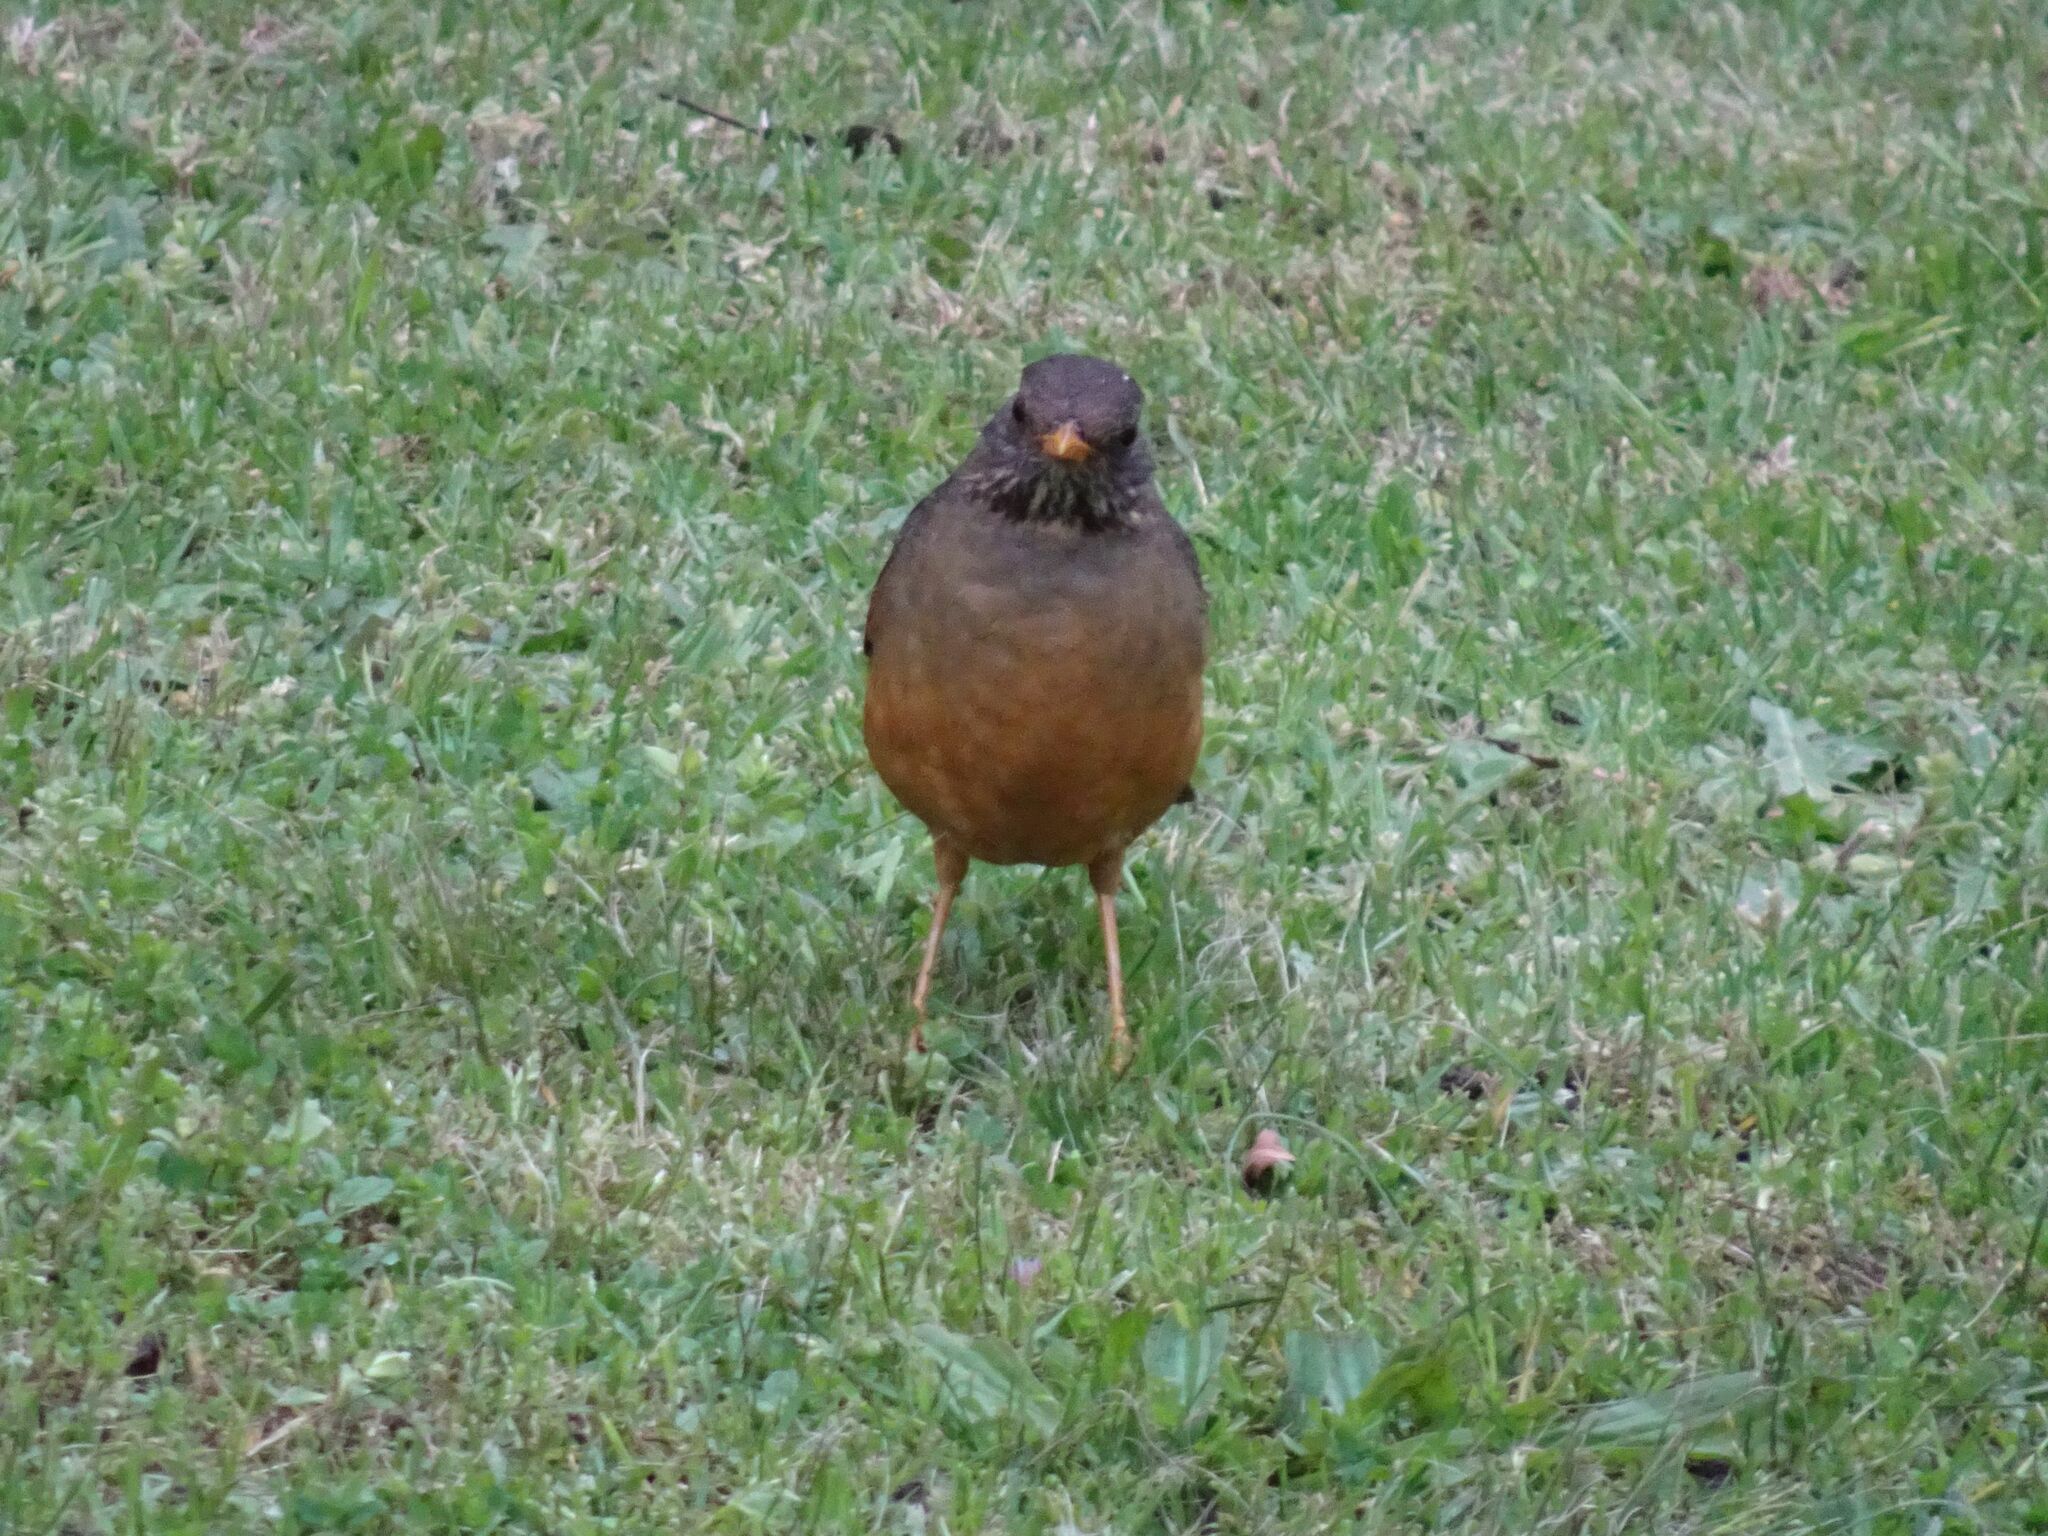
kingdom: Animalia
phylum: Chordata
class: Aves
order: Passeriformes
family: Turdidae
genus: Turdus
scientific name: Turdus olivaceus
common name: Olive thrush
